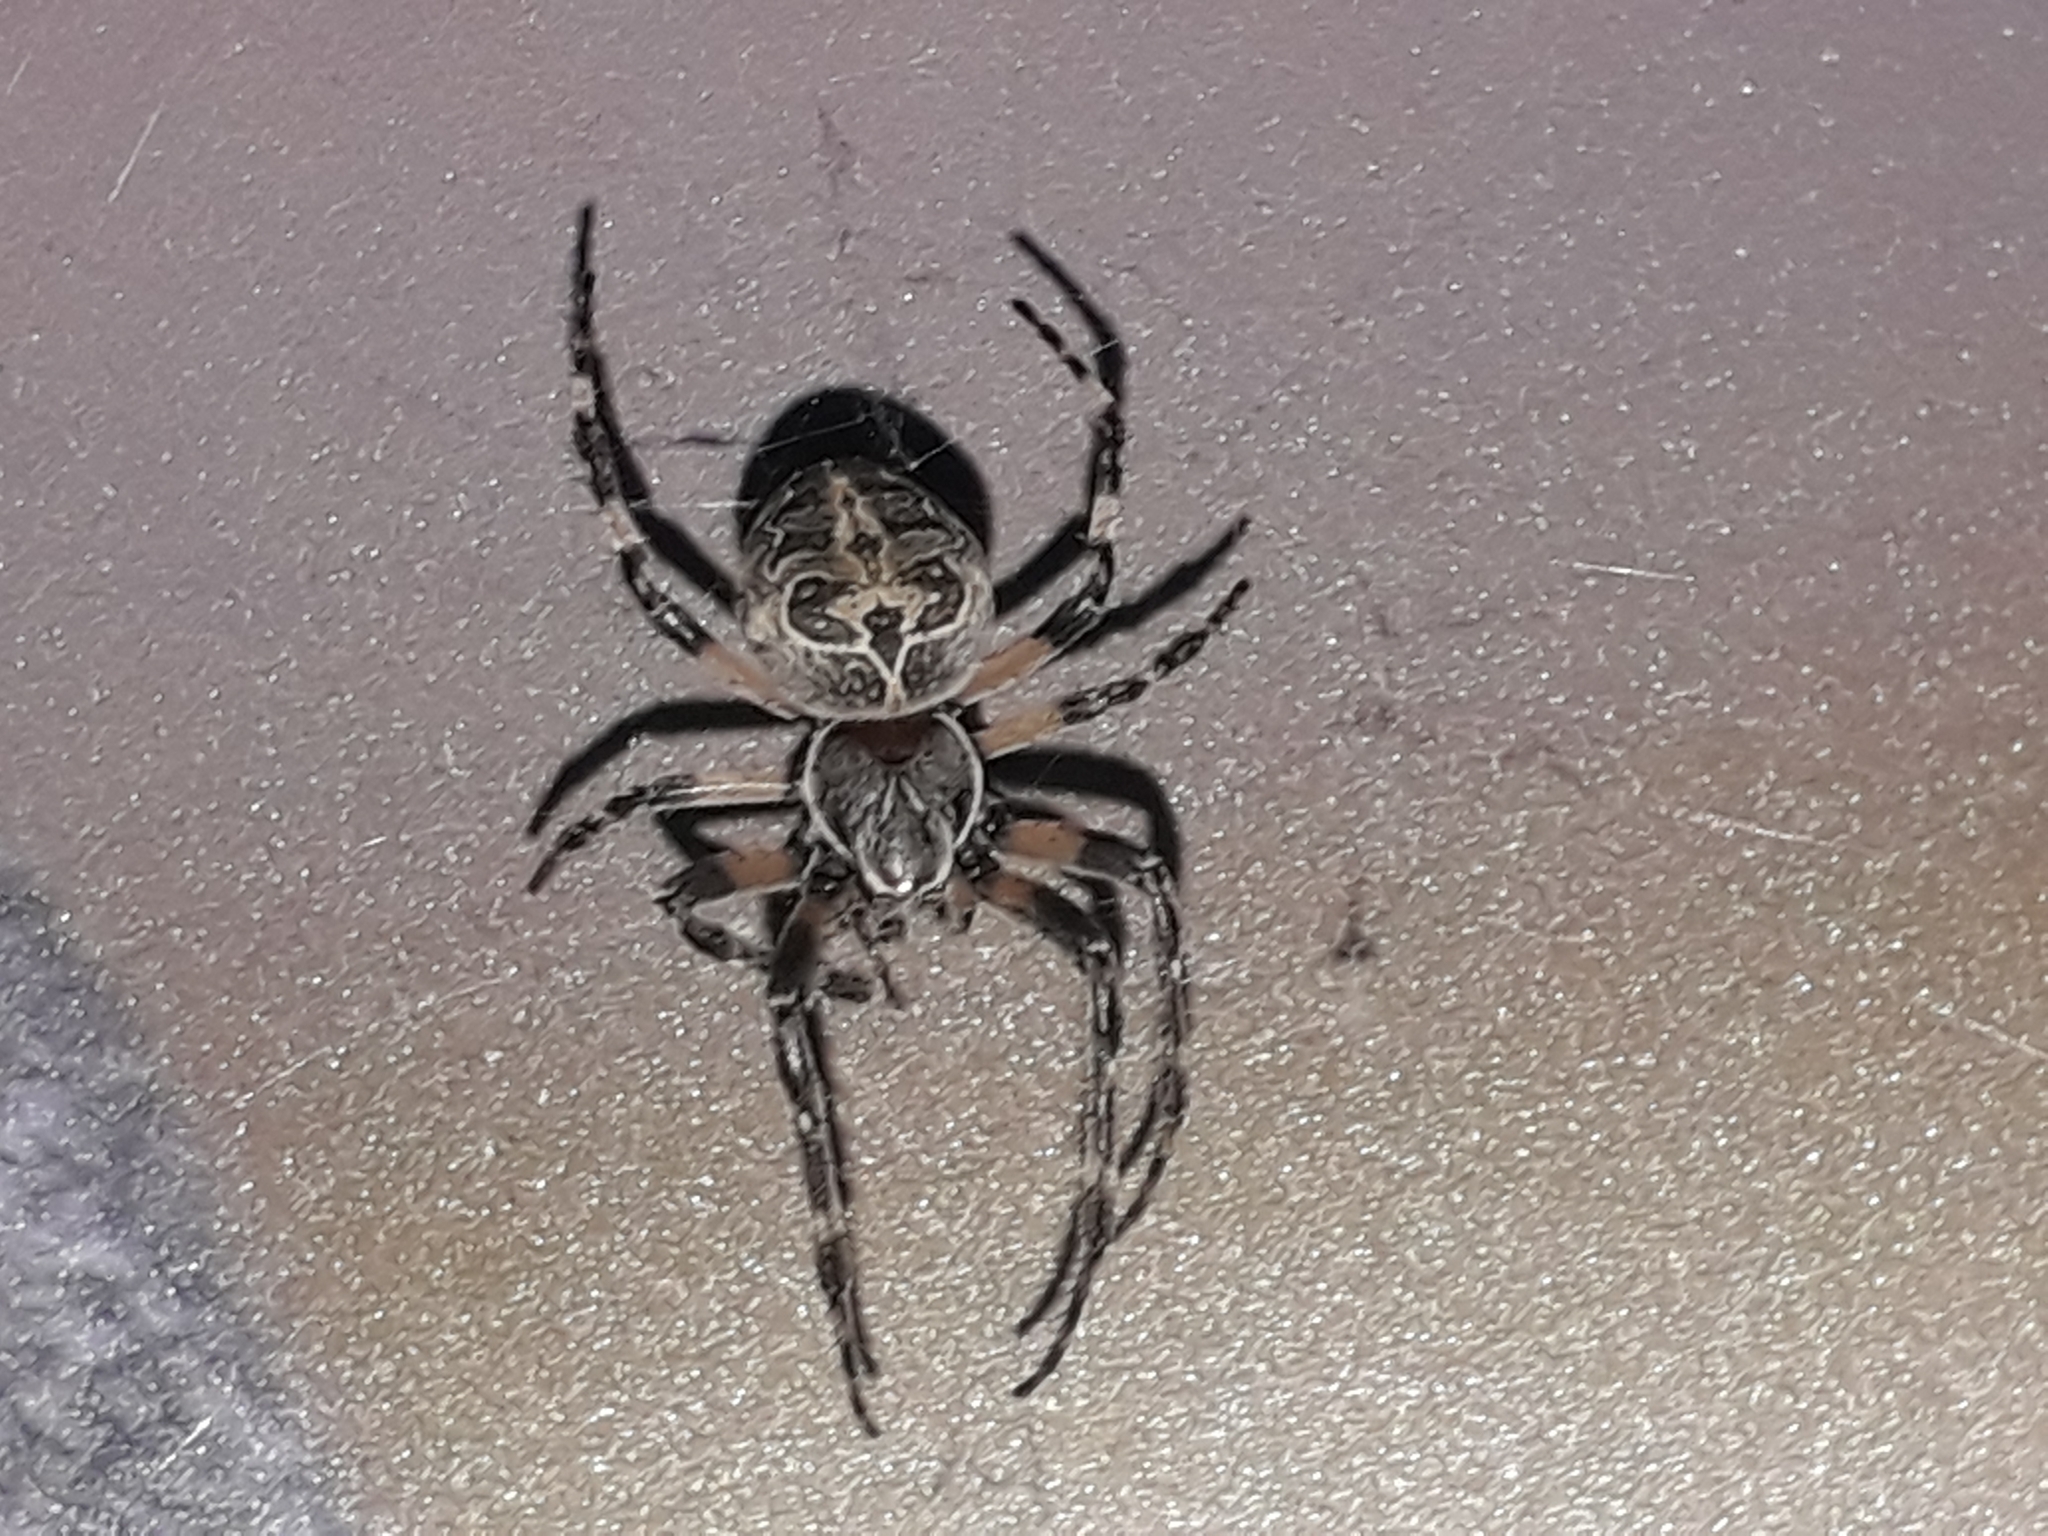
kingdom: Animalia
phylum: Arthropoda
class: Arachnida
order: Araneae
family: Araneidae
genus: Larinioides
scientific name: Larinioides sclopetarius
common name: Bridge orbweaver
